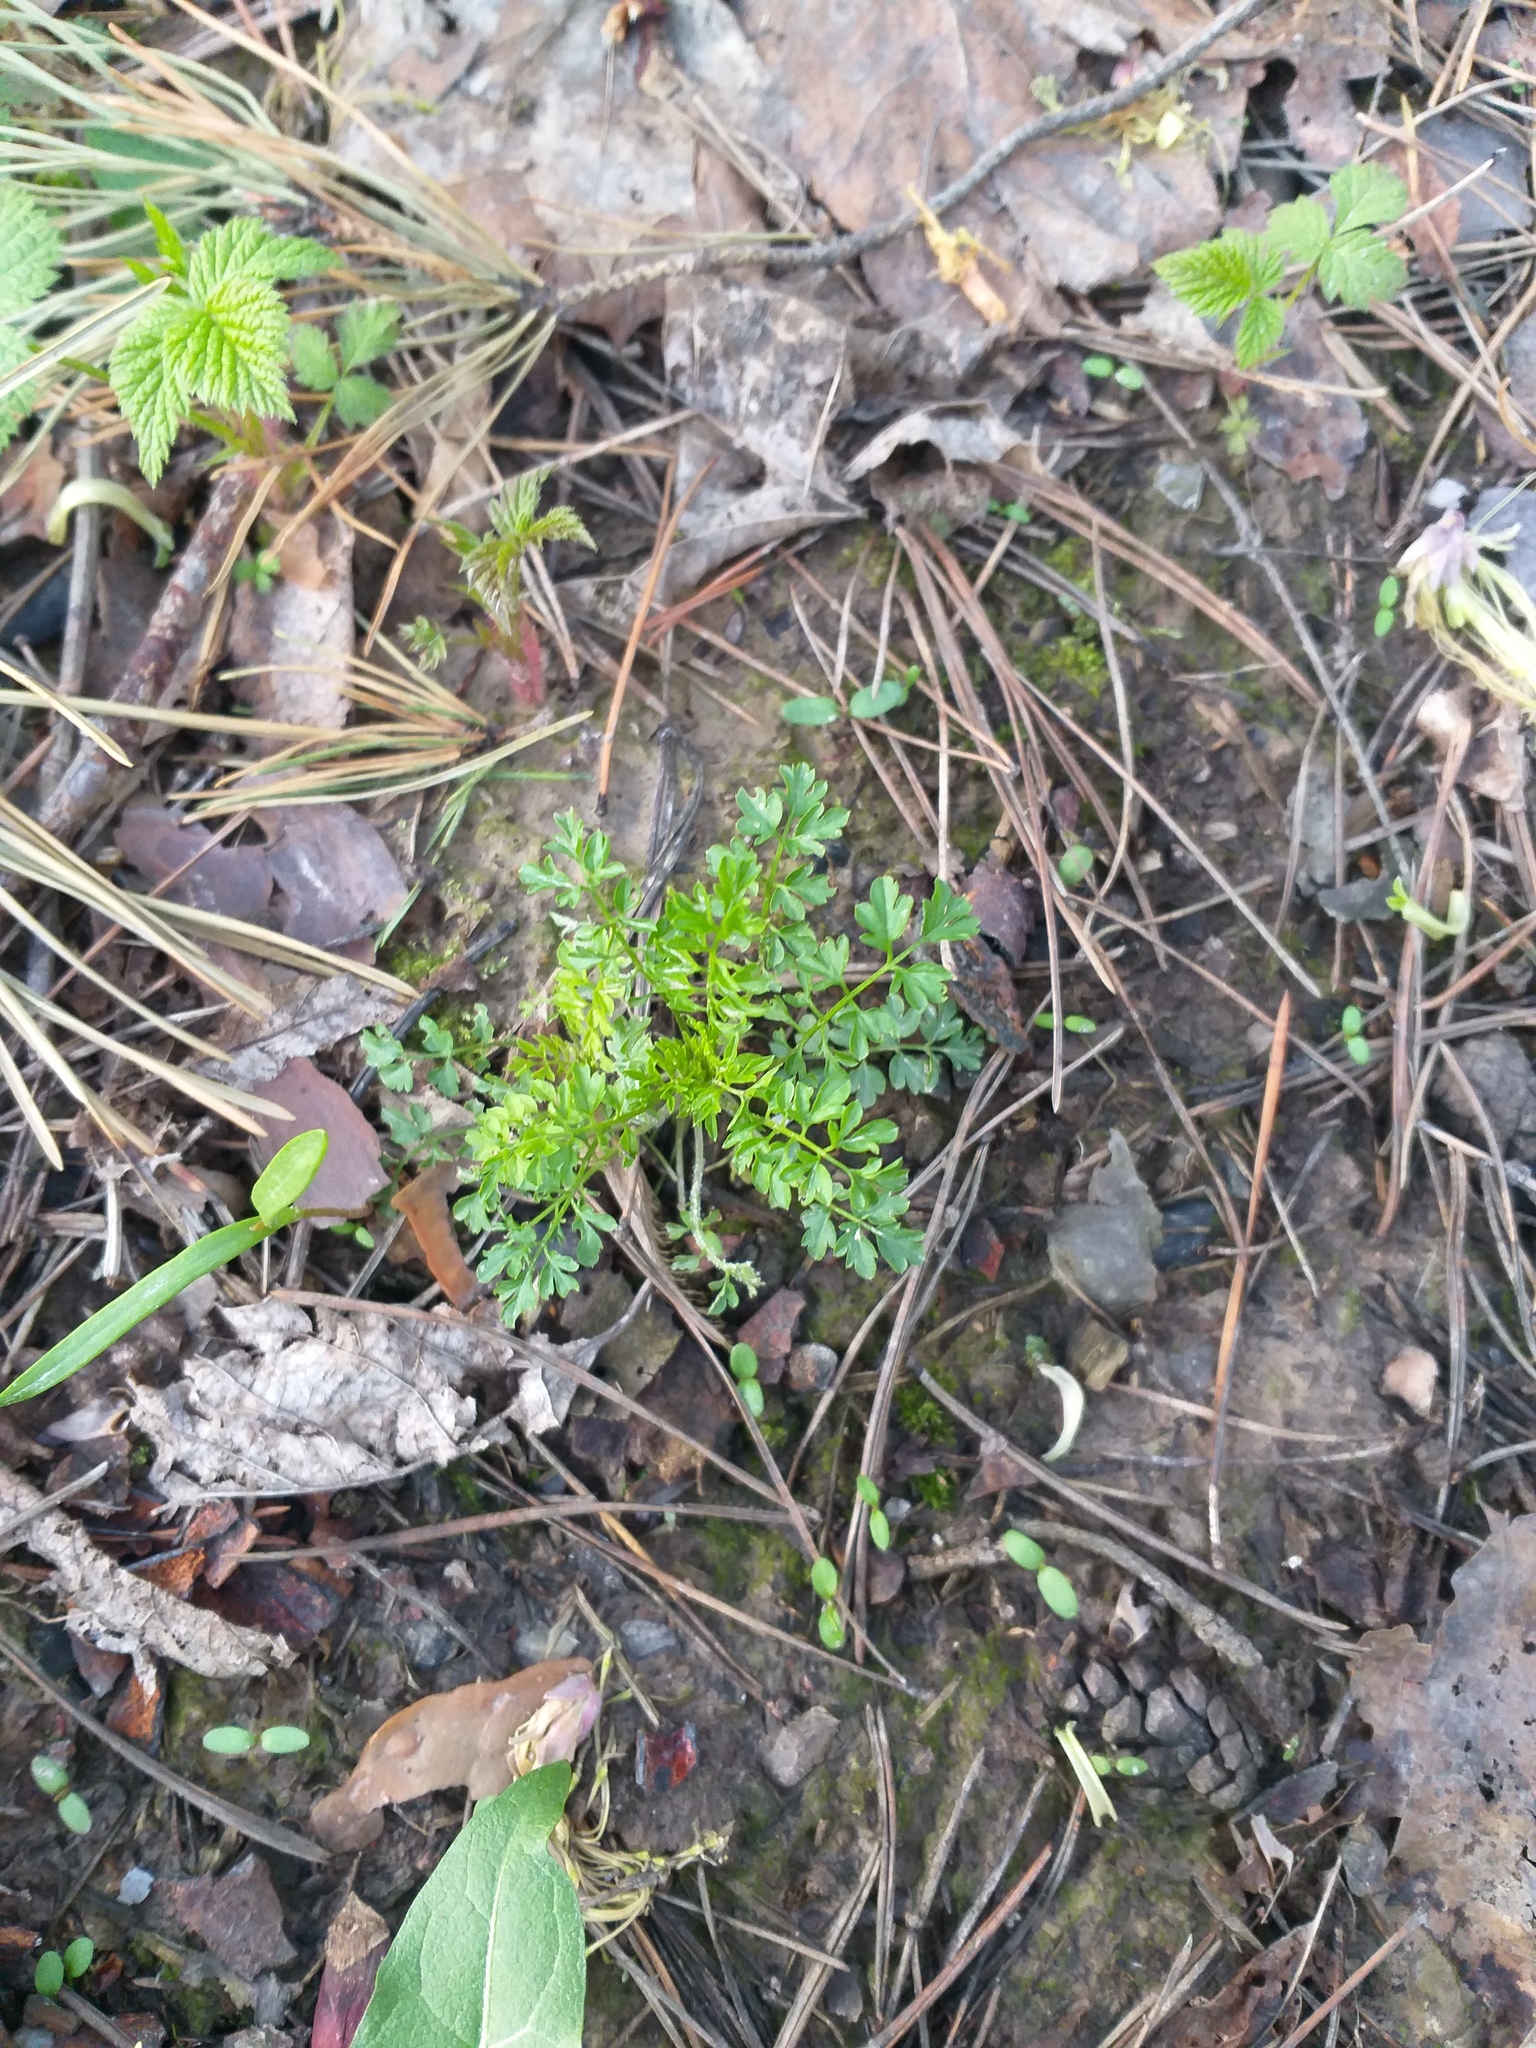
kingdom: Plantae
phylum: Tracheophyta
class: Magnoliopsida
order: Brassicales
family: Brassicaceae
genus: Cardamine
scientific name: Cardamine impatiens
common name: Narrow-leaved bitter-cress
